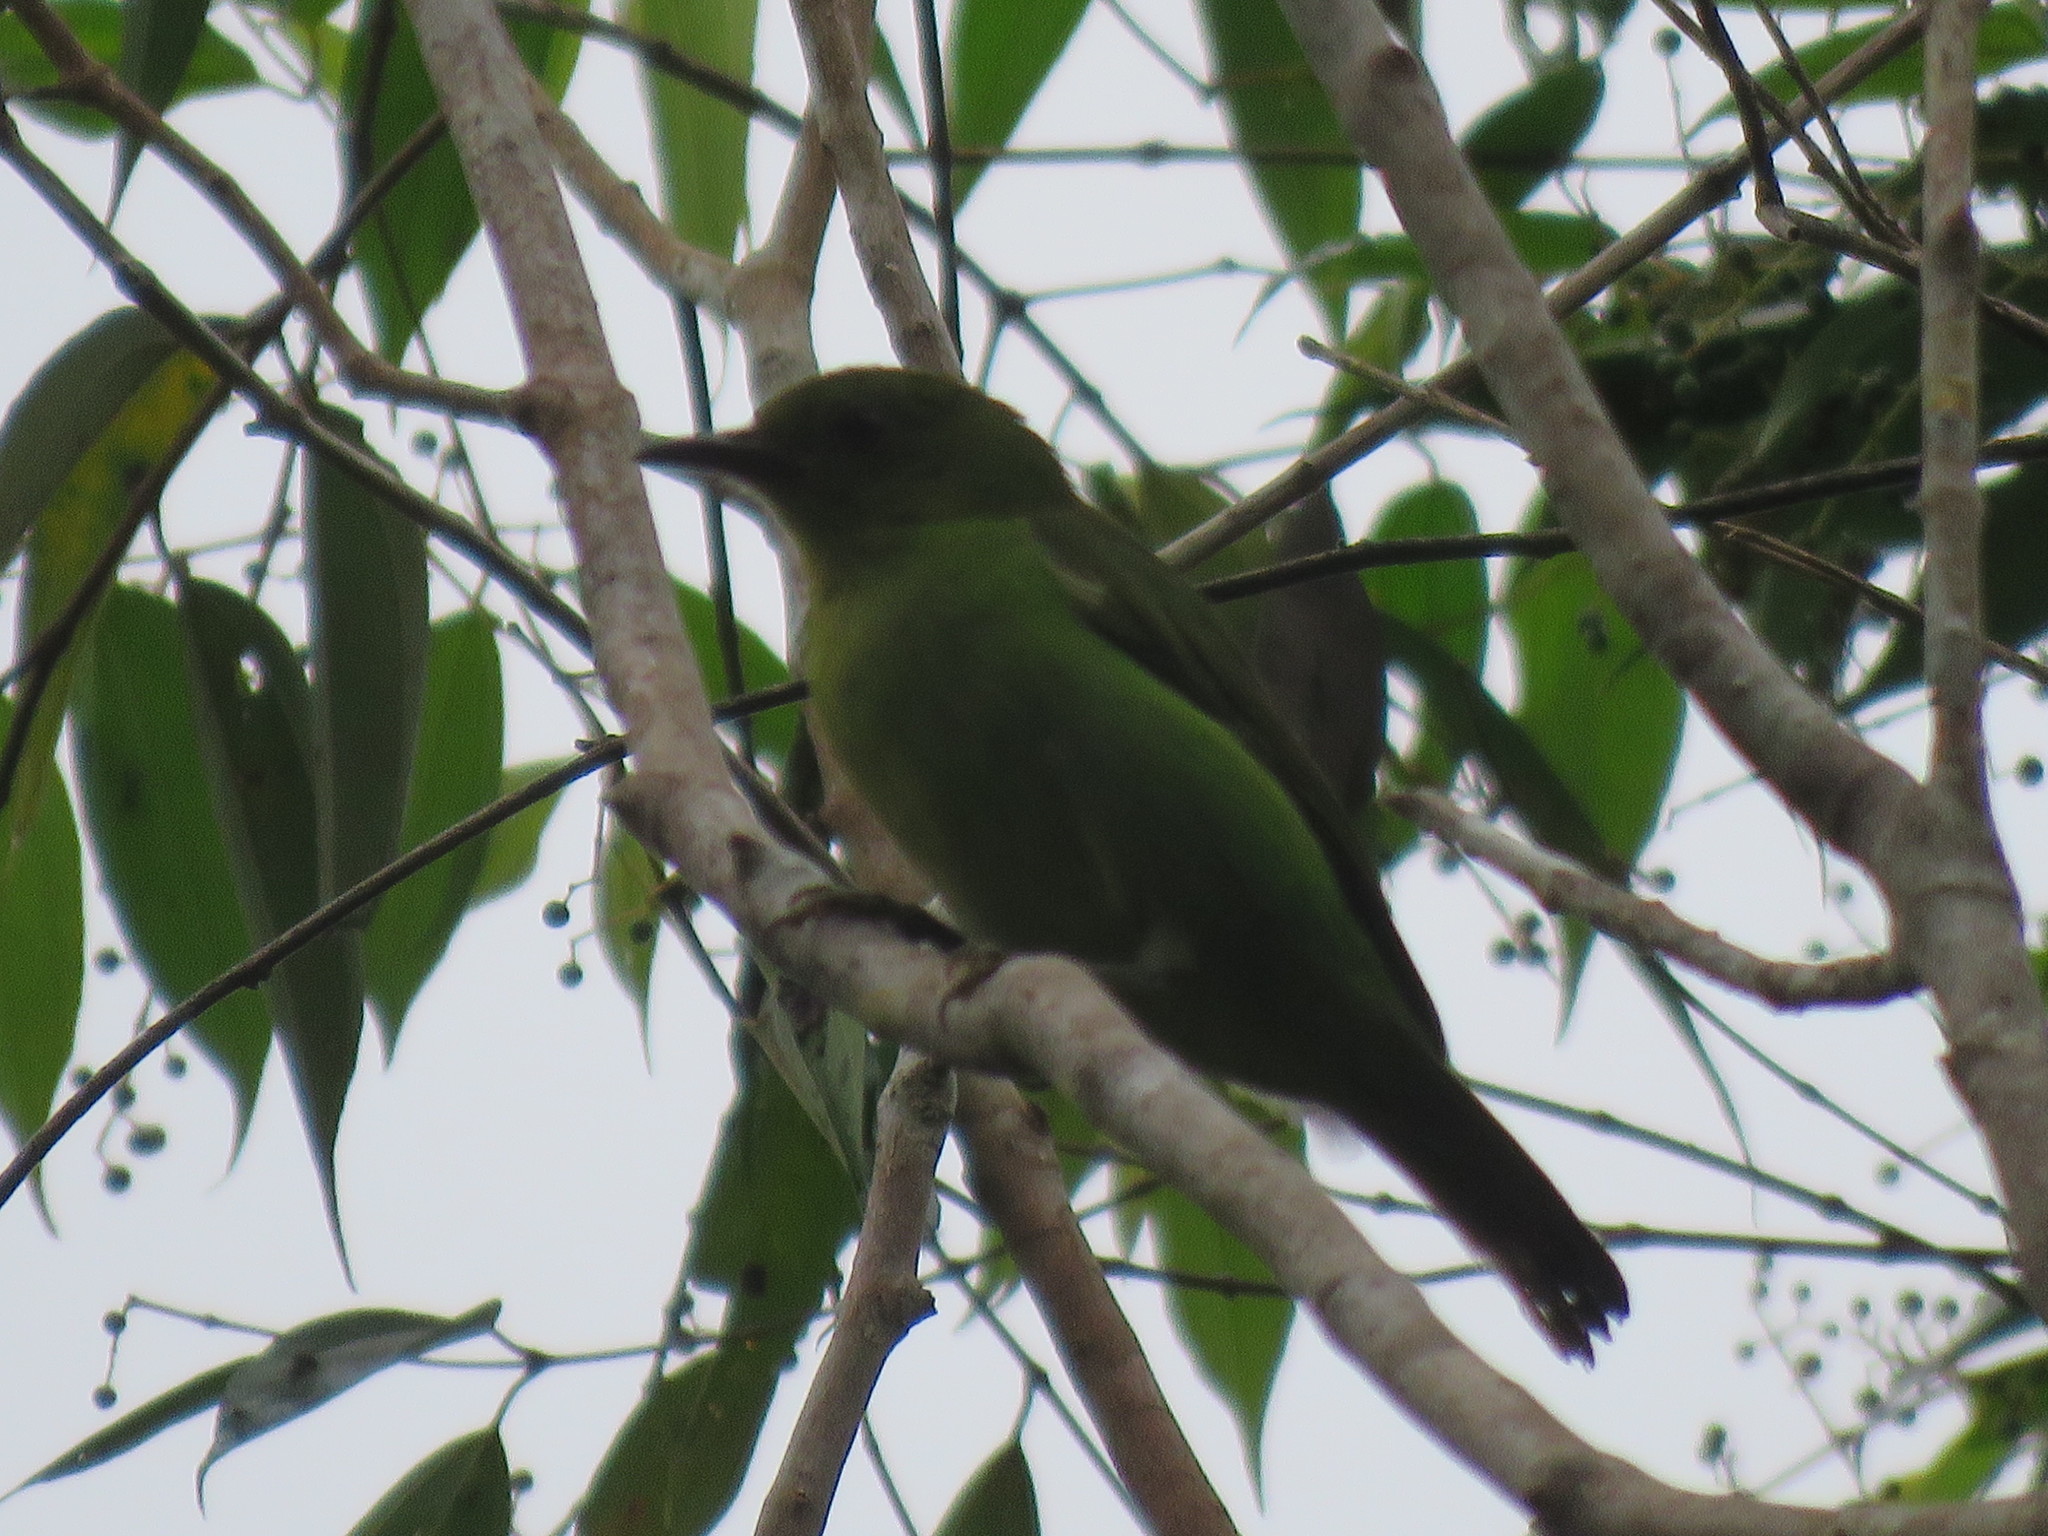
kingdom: Animalia
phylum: Chordata
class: Aves
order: Passeriformes
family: Thraupidae
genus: Chlorophanes
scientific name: Chlorophanes spiza
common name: Green honeycreeper
